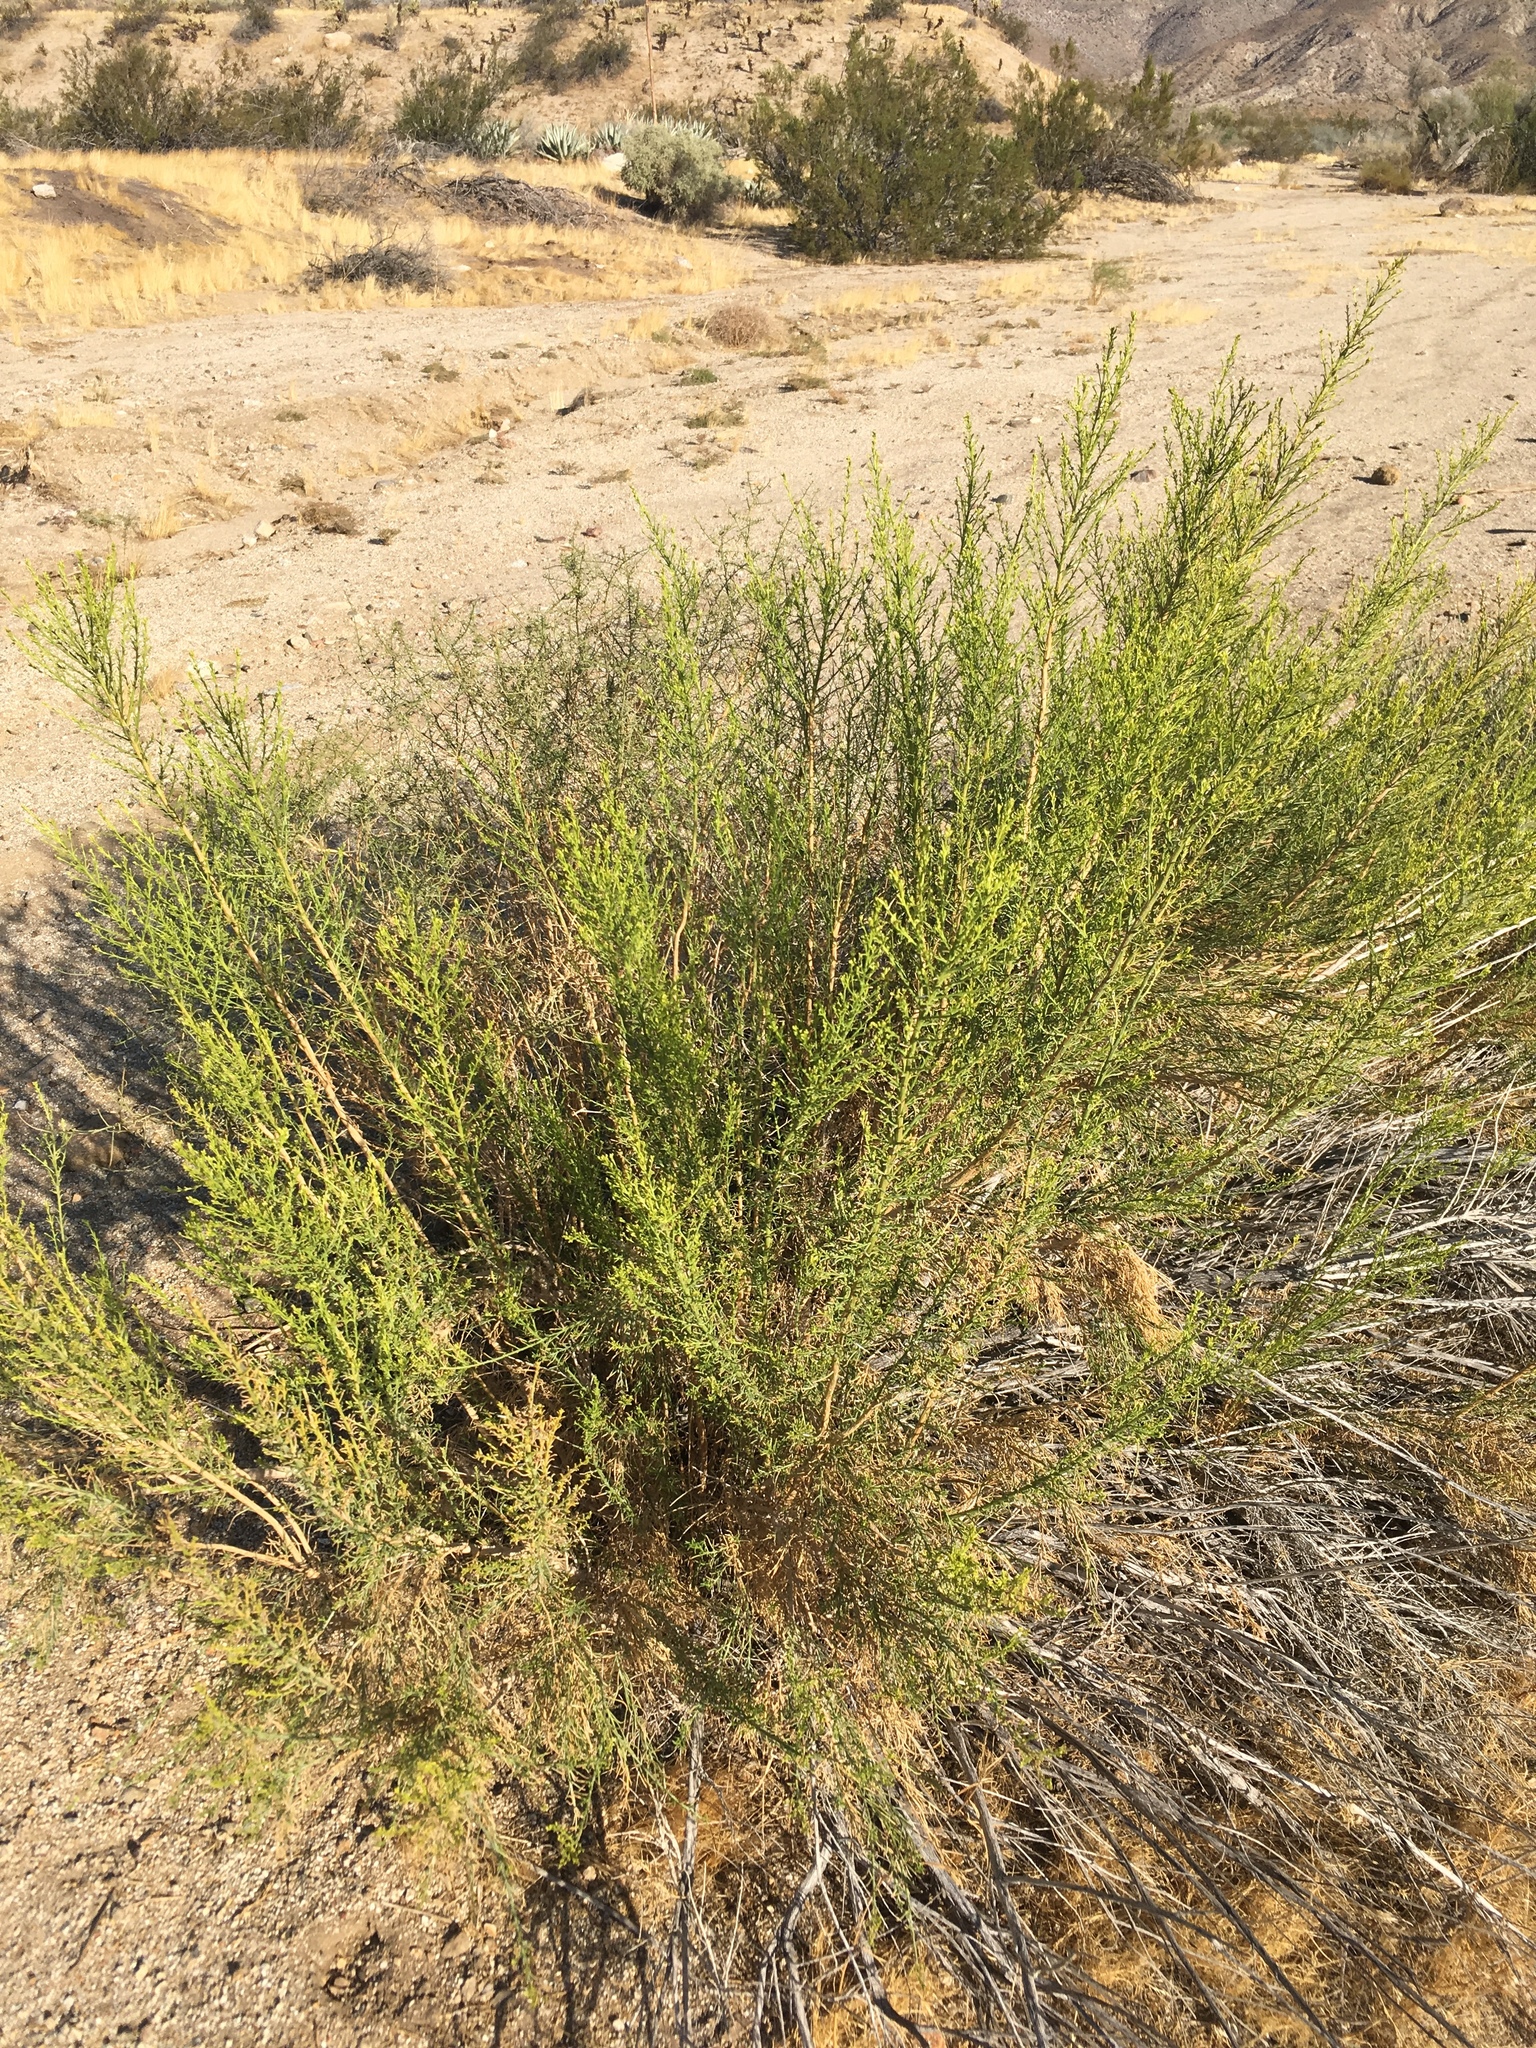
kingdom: Plantae
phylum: Tracheophyta
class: Magnoliopsida
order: Asterales
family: Asteraceae
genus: Ericameria
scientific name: Ericameria paniculata
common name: Punctate rabbitbrush
